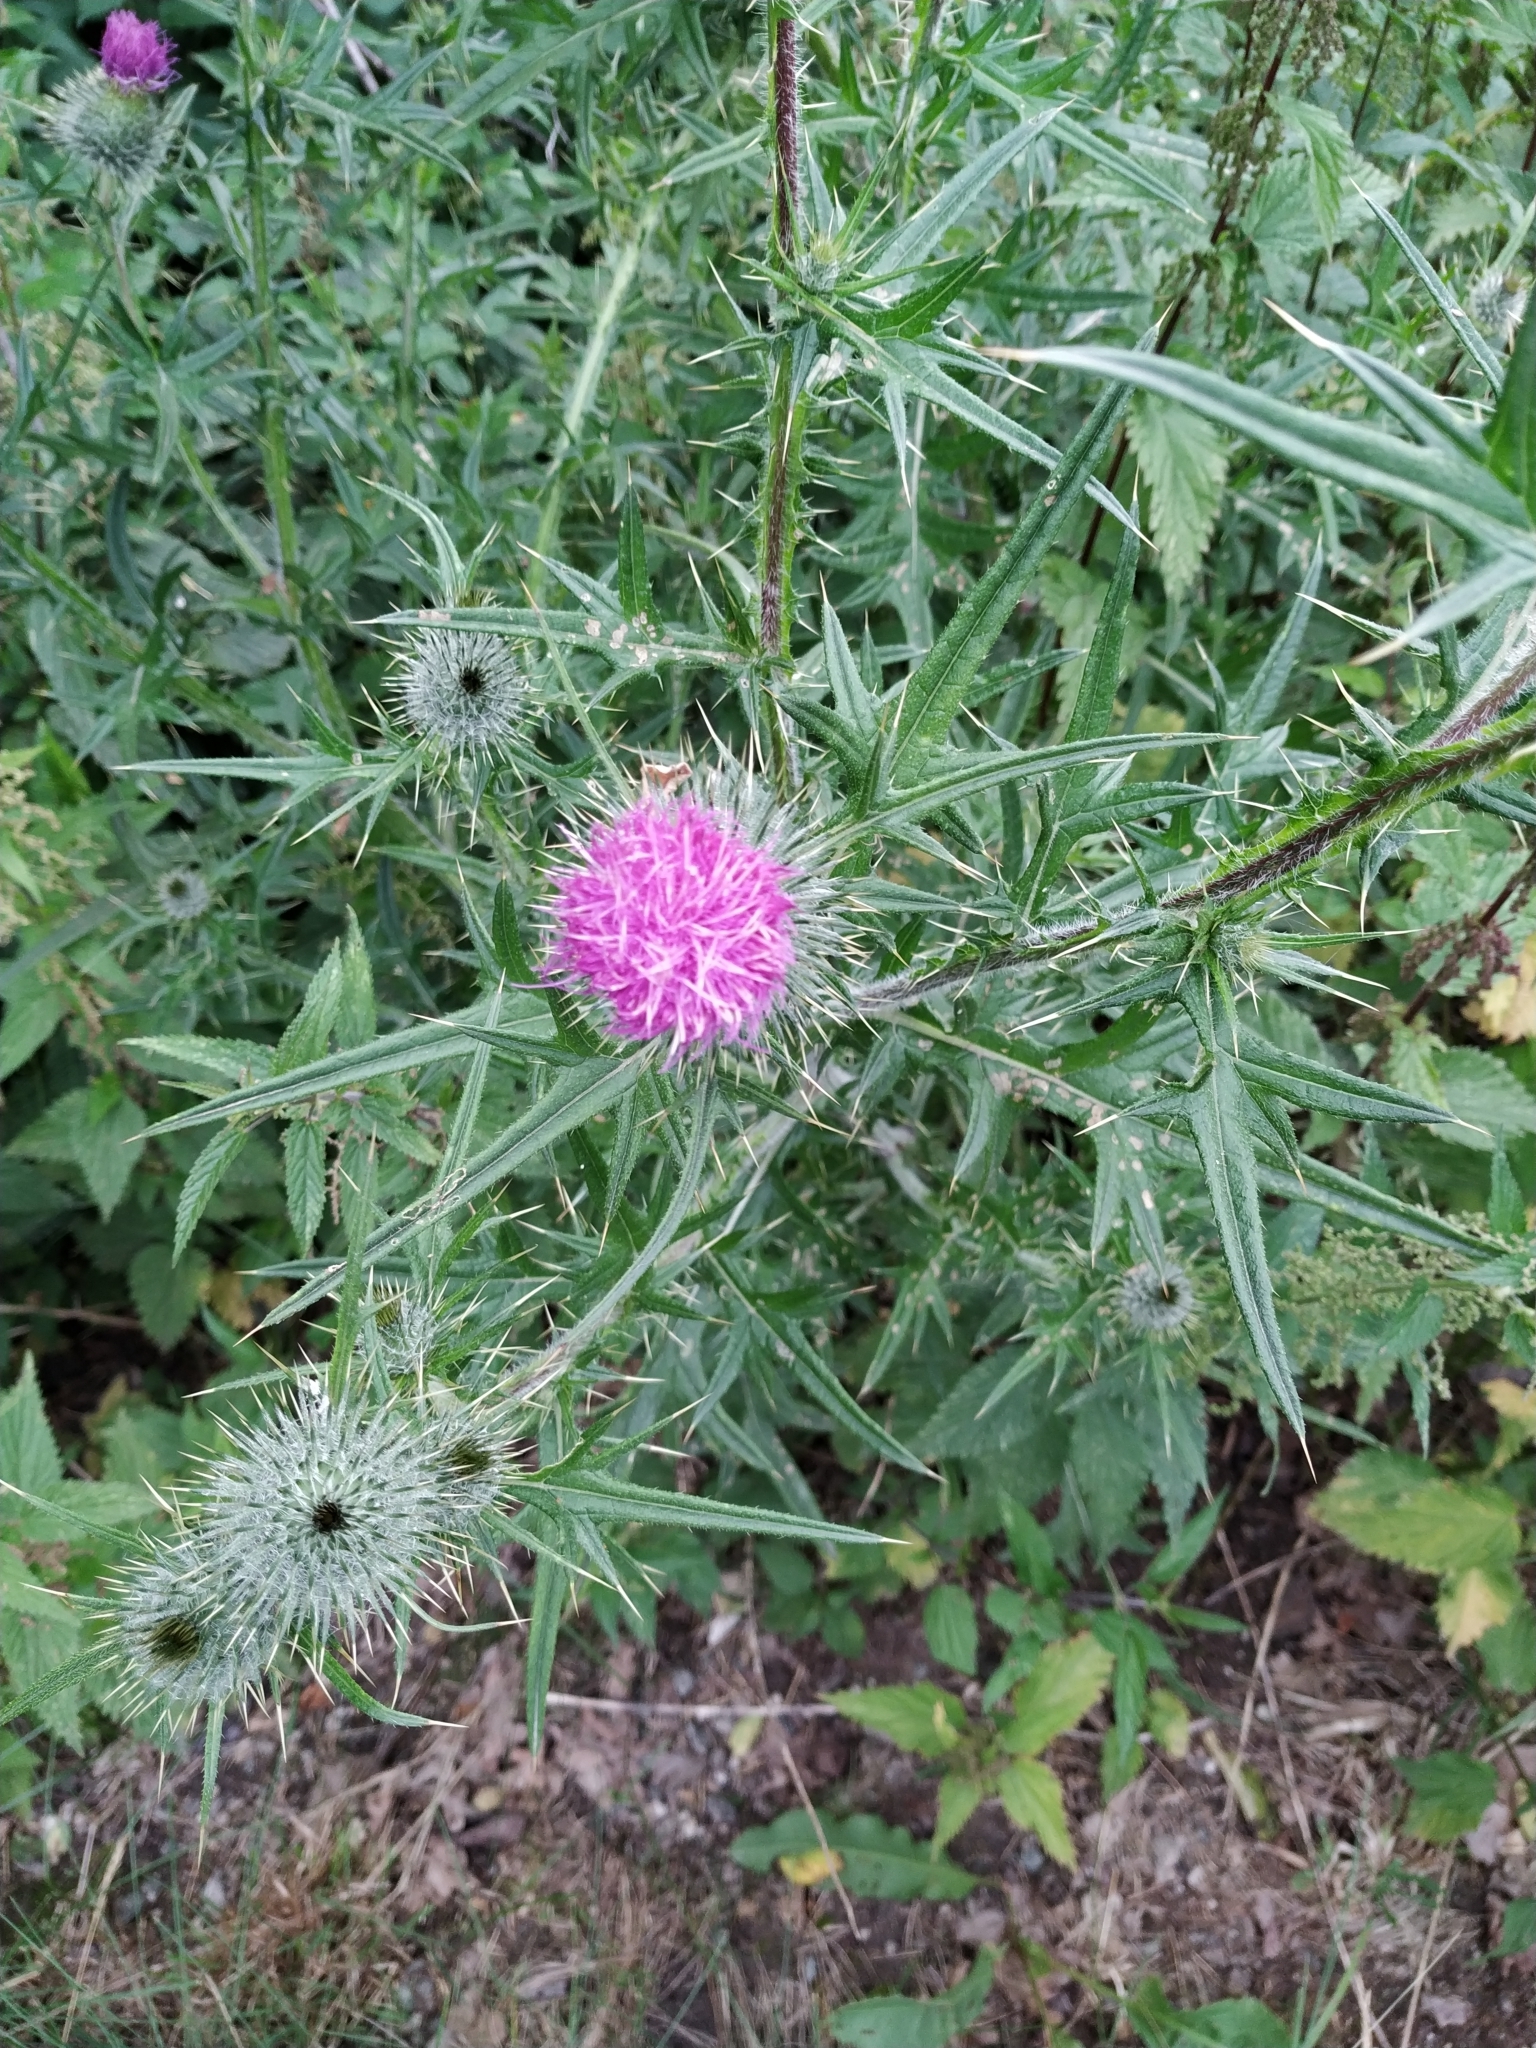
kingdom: Plantae
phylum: Tracheophyta
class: Magnoliopsida
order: Asterales
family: Asteraceae
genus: Cirsium
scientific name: Cirsium vulgare
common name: Bull thistle
